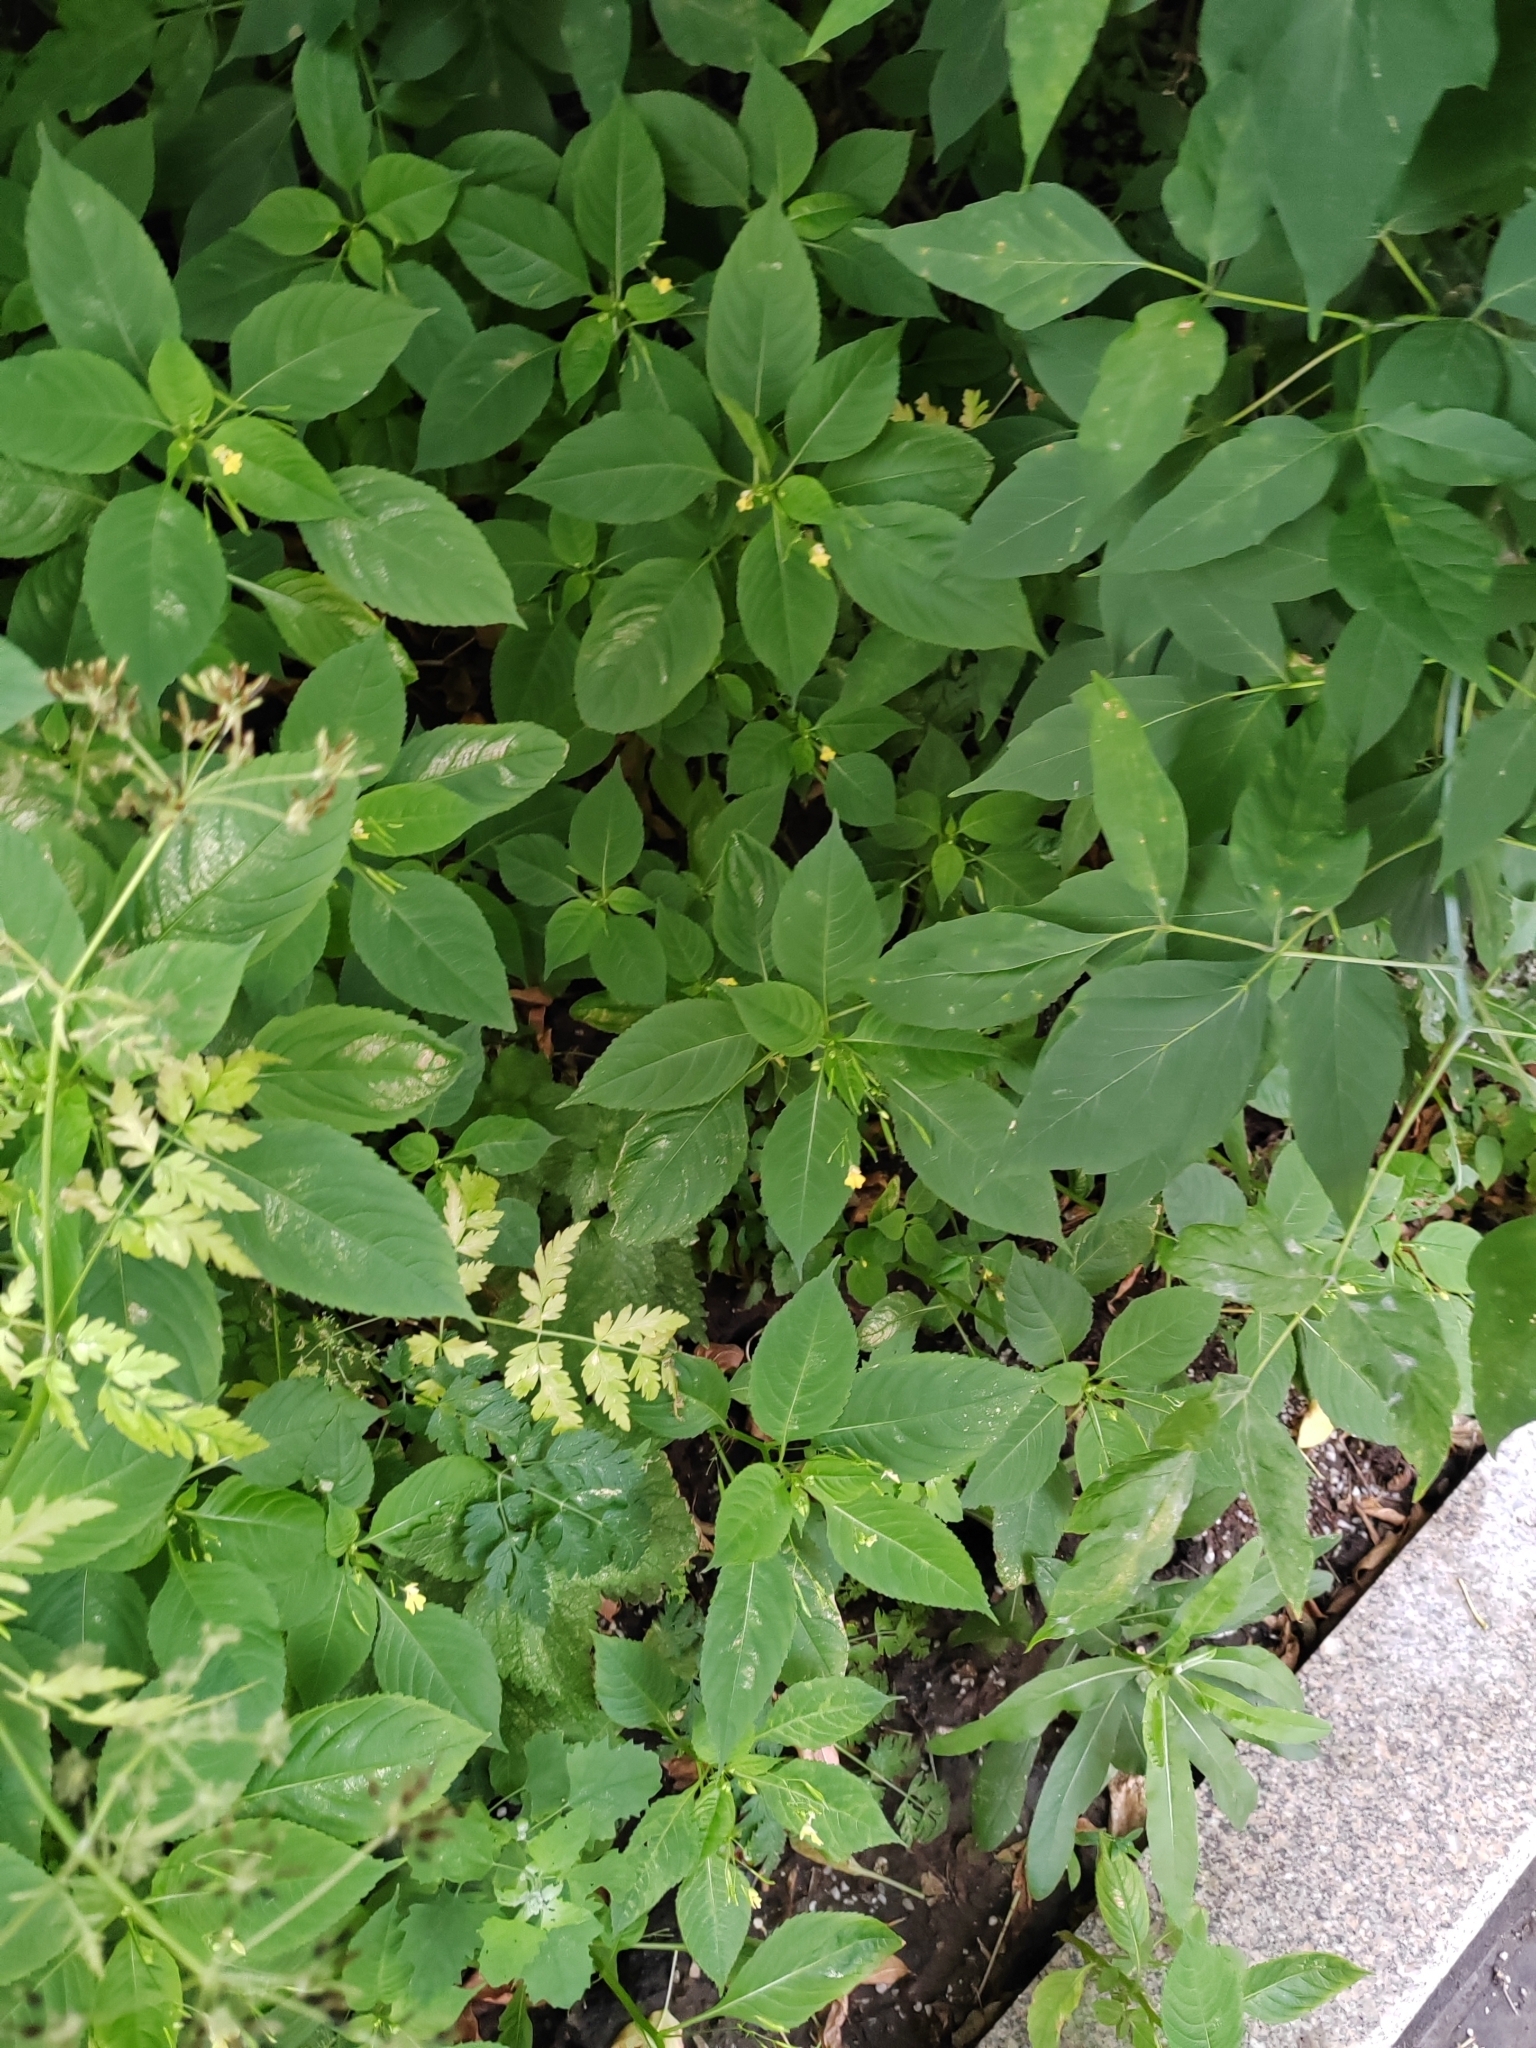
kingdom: Plantae
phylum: Tracheophyta
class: Magnoliopsida
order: Ericales
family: Balsaminaceae
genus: Impatiens
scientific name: Impatiens parviflora
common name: Small balsam
